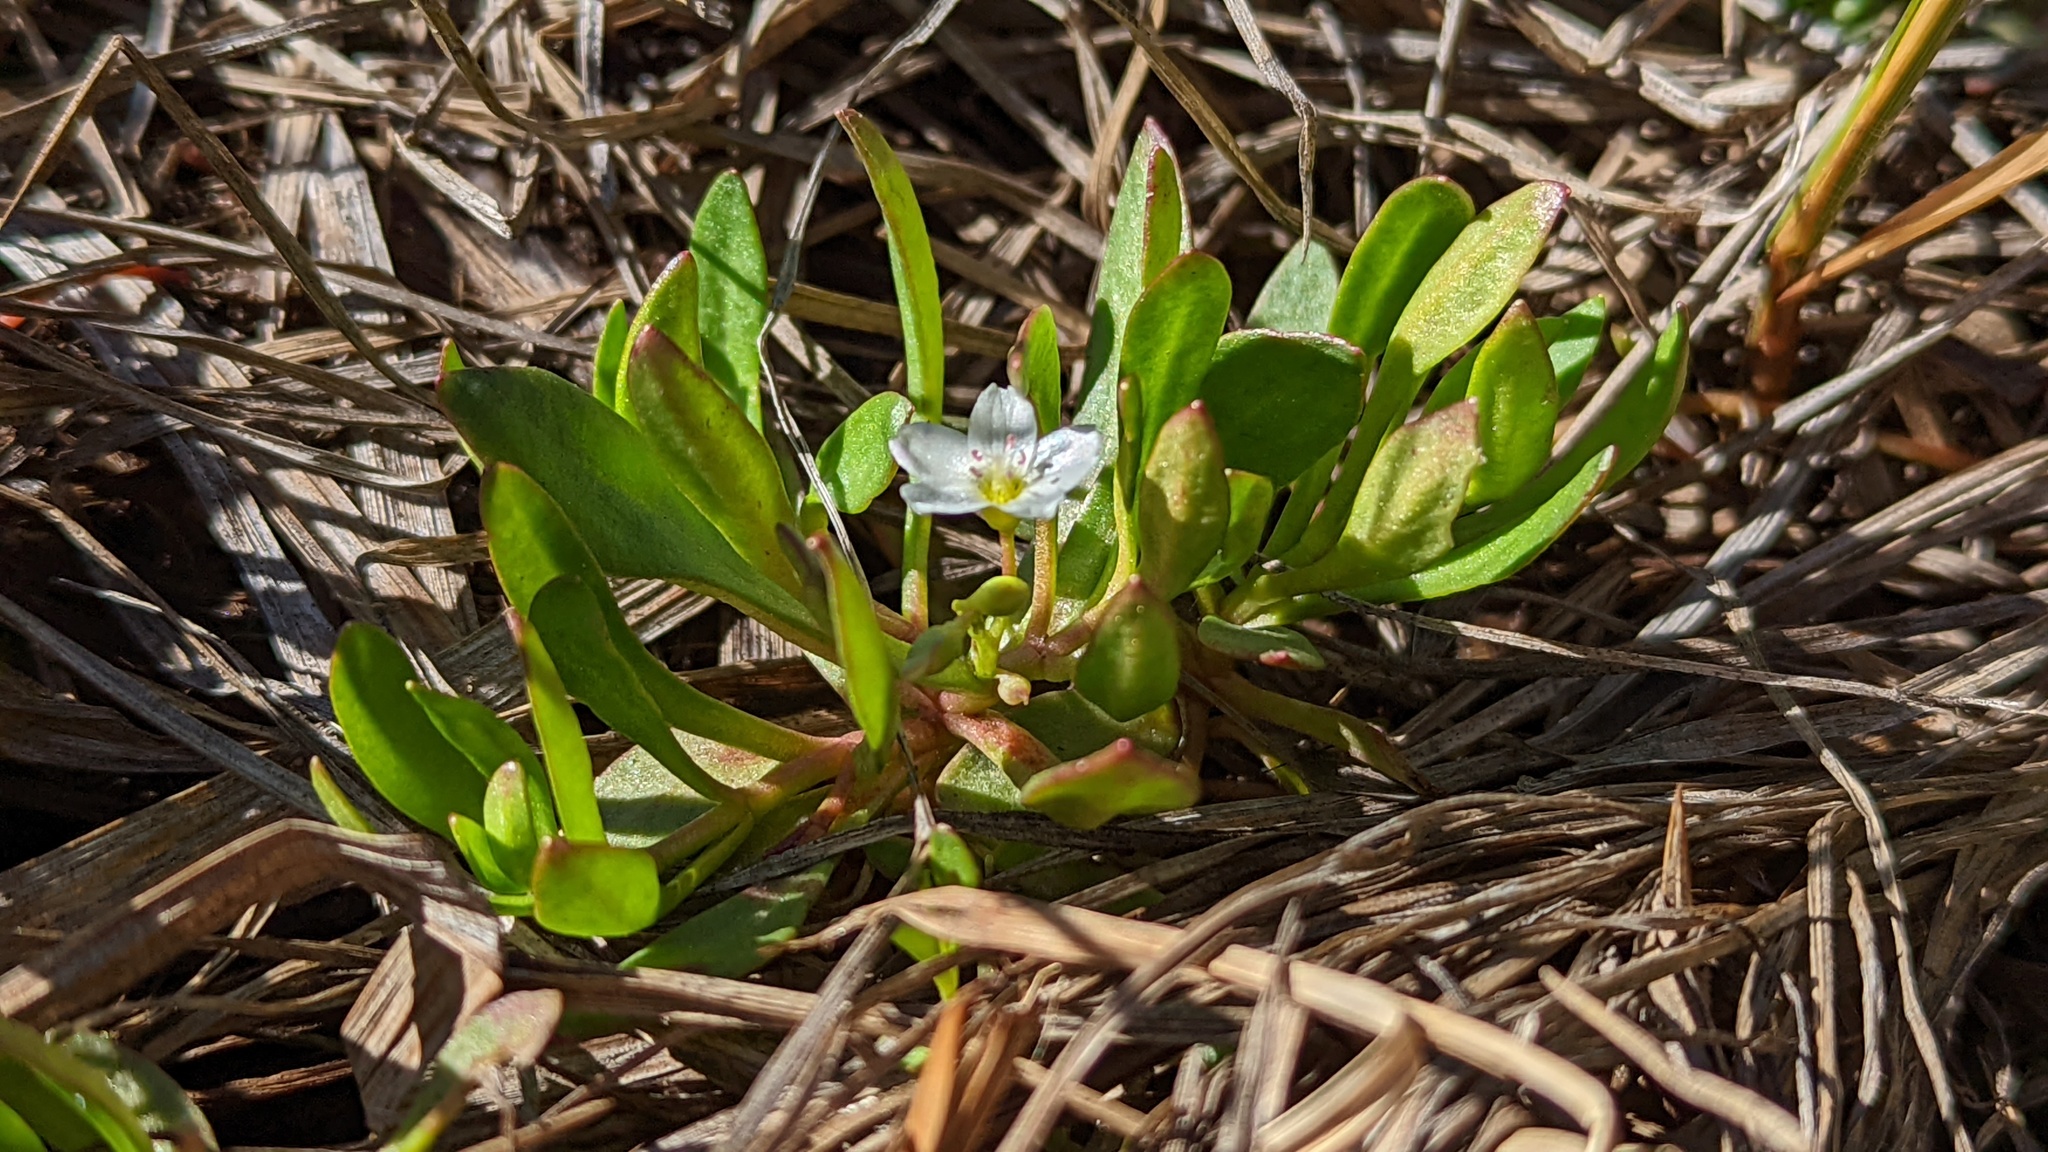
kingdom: Plantae
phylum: Tracheophyta
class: Magnoliopsida
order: Caryophyllales
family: Montiaceae
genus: Montia
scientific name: Montia chamissoi
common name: Chamisso's candyflower
